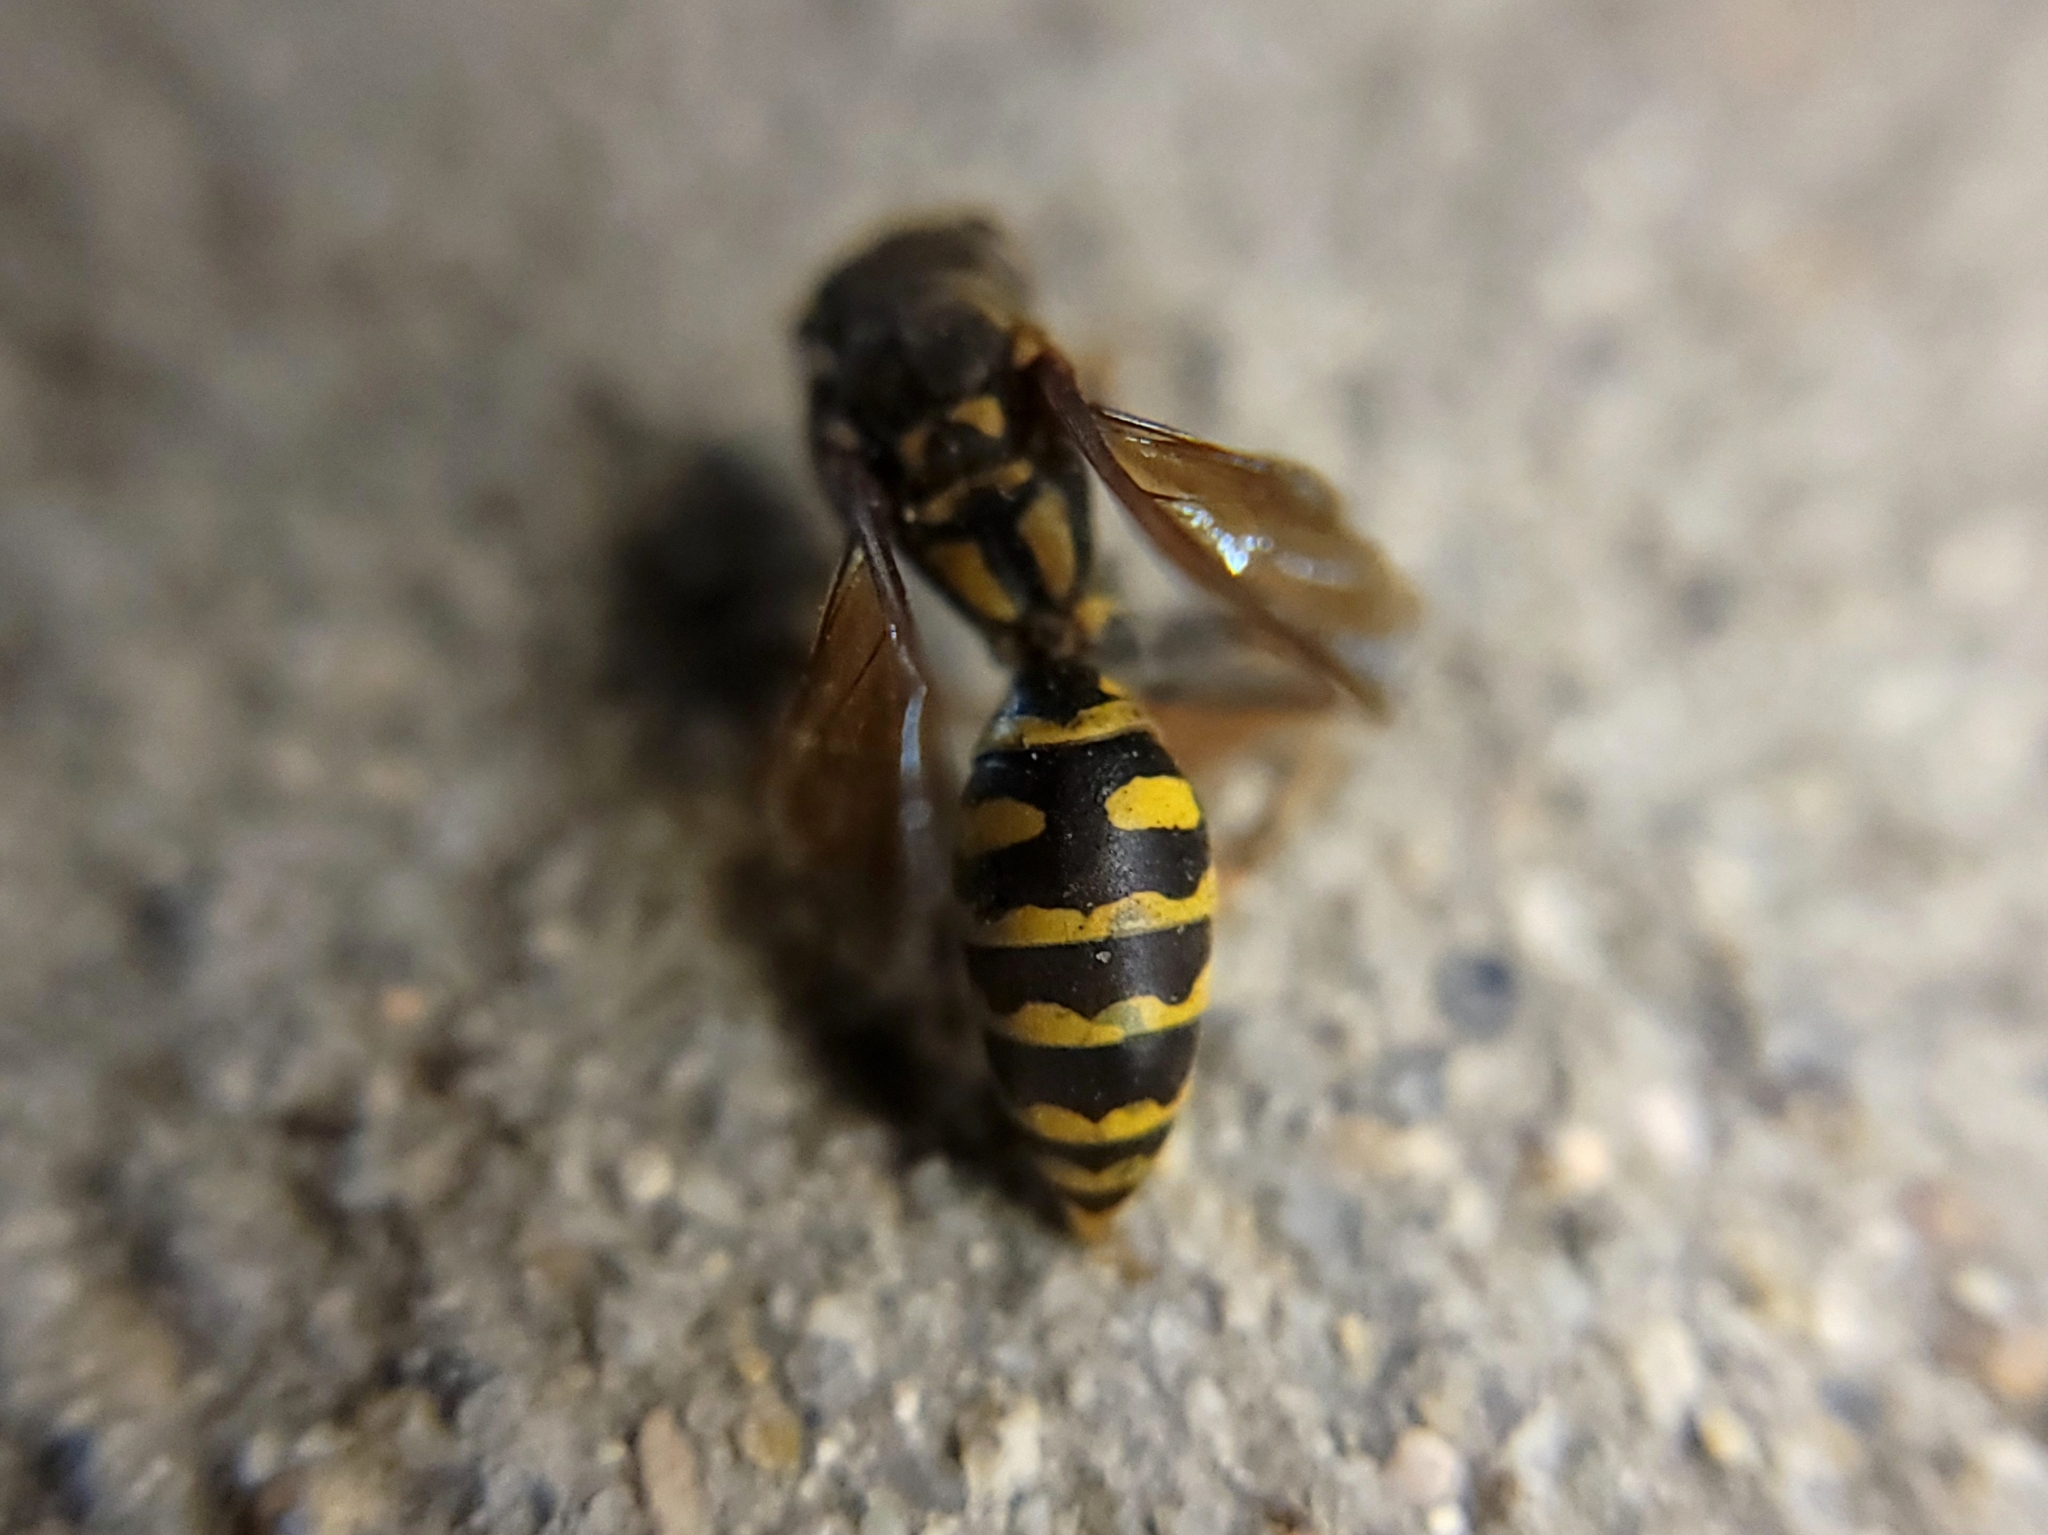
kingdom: Animalia
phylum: Arthropoda
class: Insecta
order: Hymenoptera
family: Eumenidae
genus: Polistes
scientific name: Polistes dominula
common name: Paper wasp
